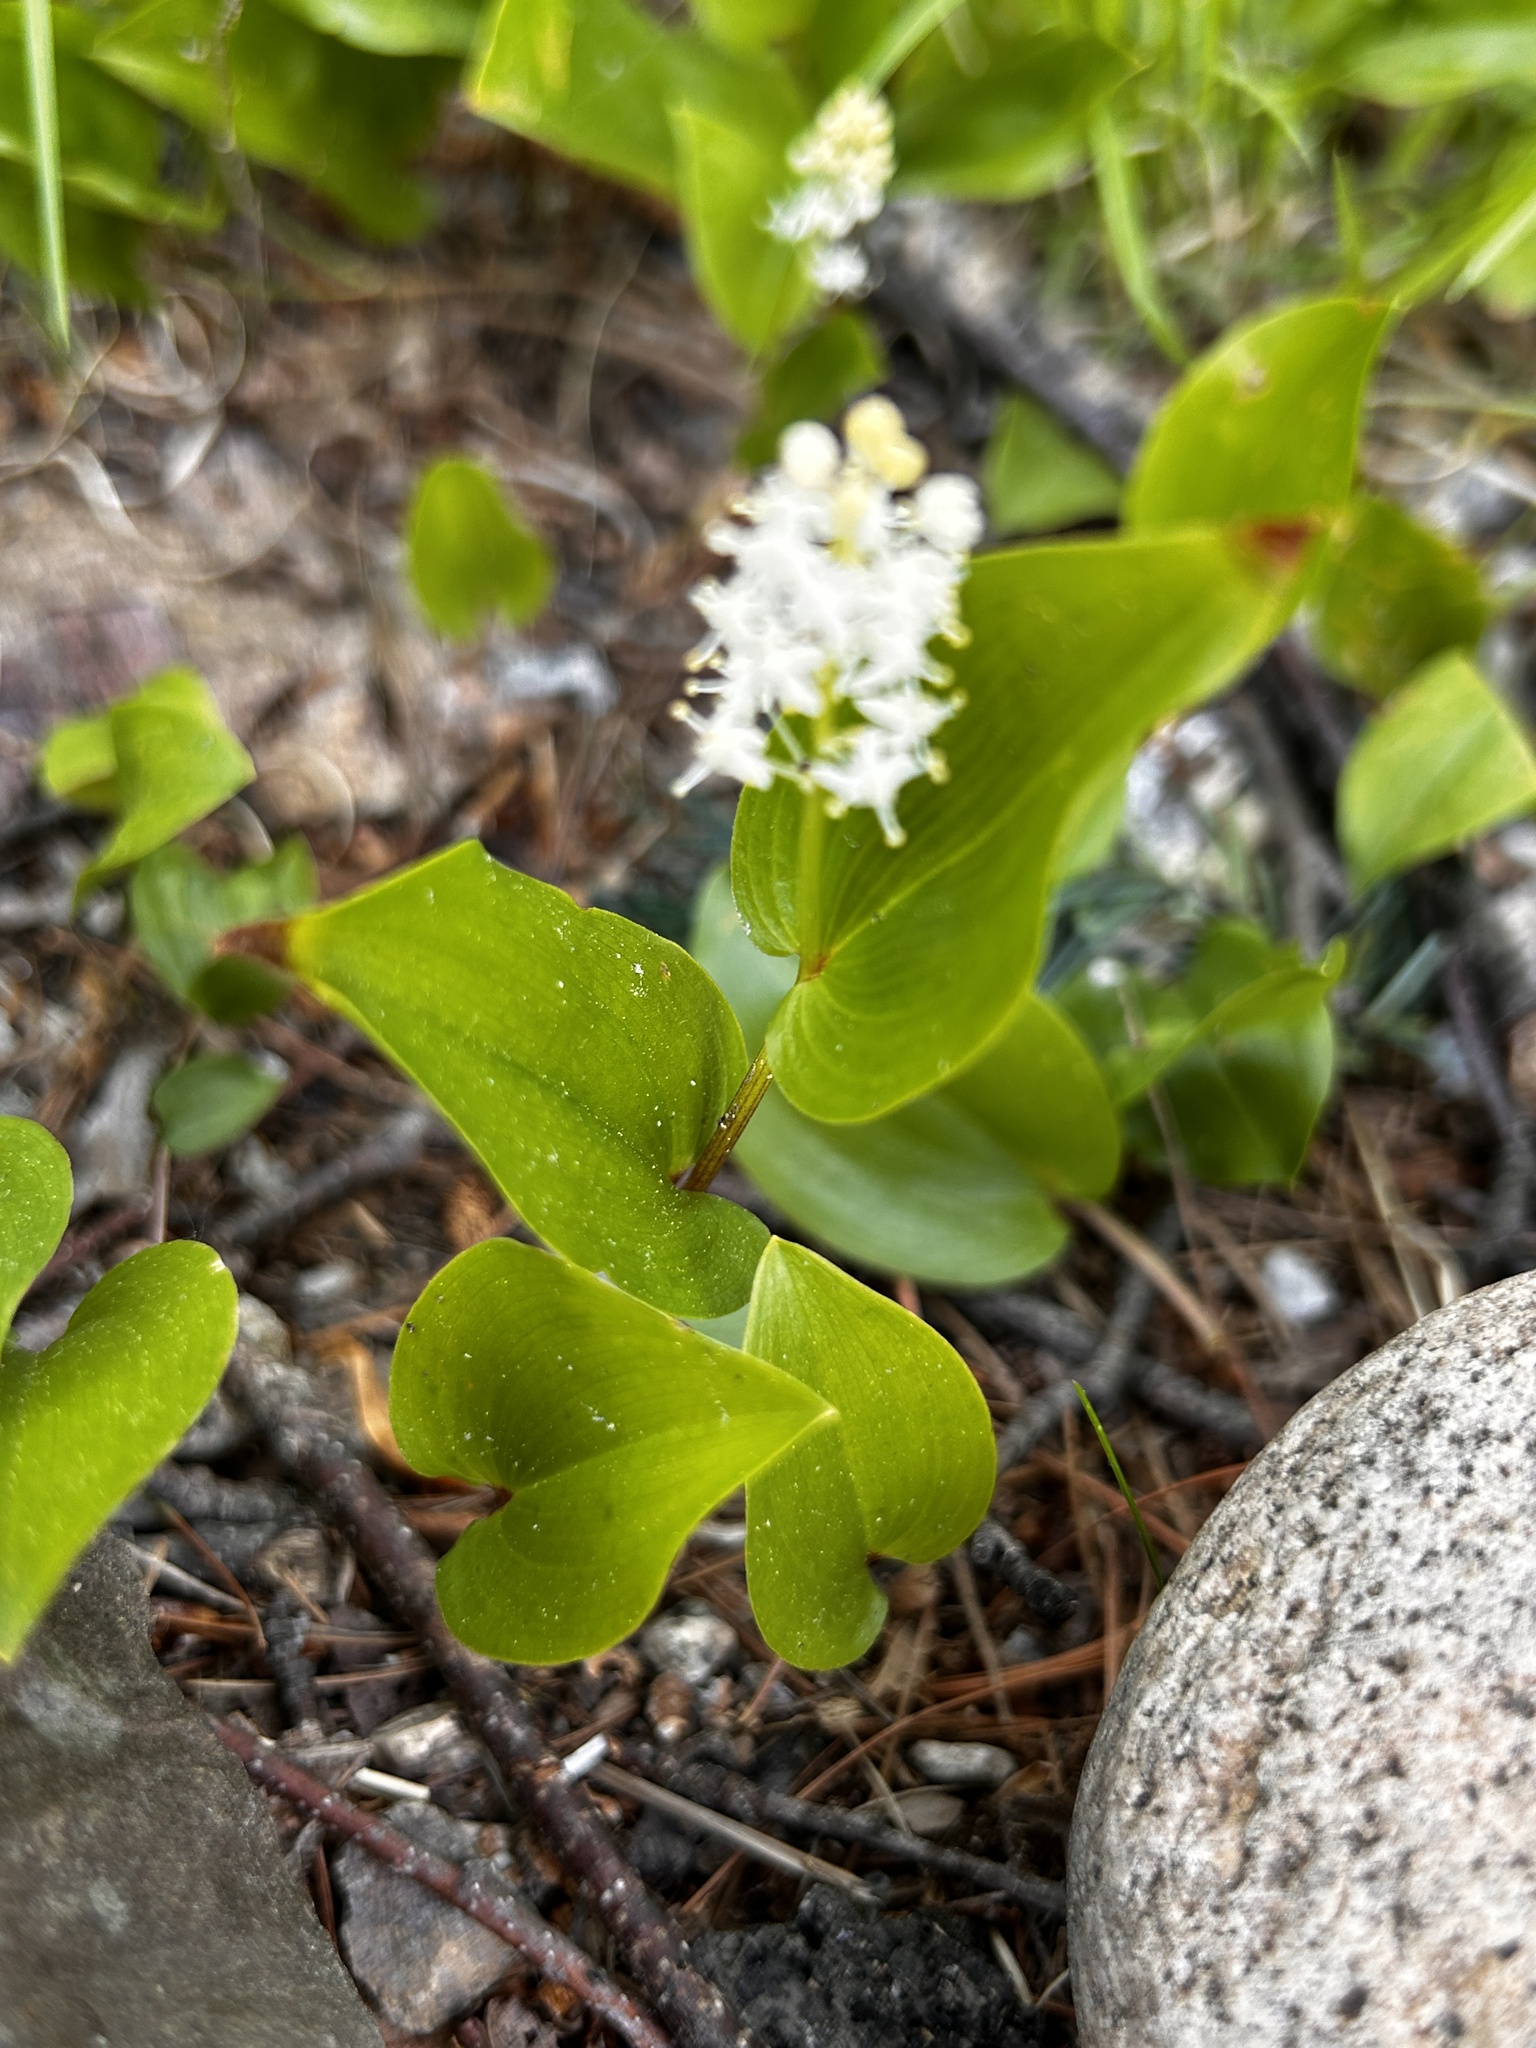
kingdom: Plantae
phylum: Tracheophyta
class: Liliopsida
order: Asparagales
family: Asparagaceae
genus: Maianthemum
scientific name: Maianthemum canadense
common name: False lily-of-the-valley
